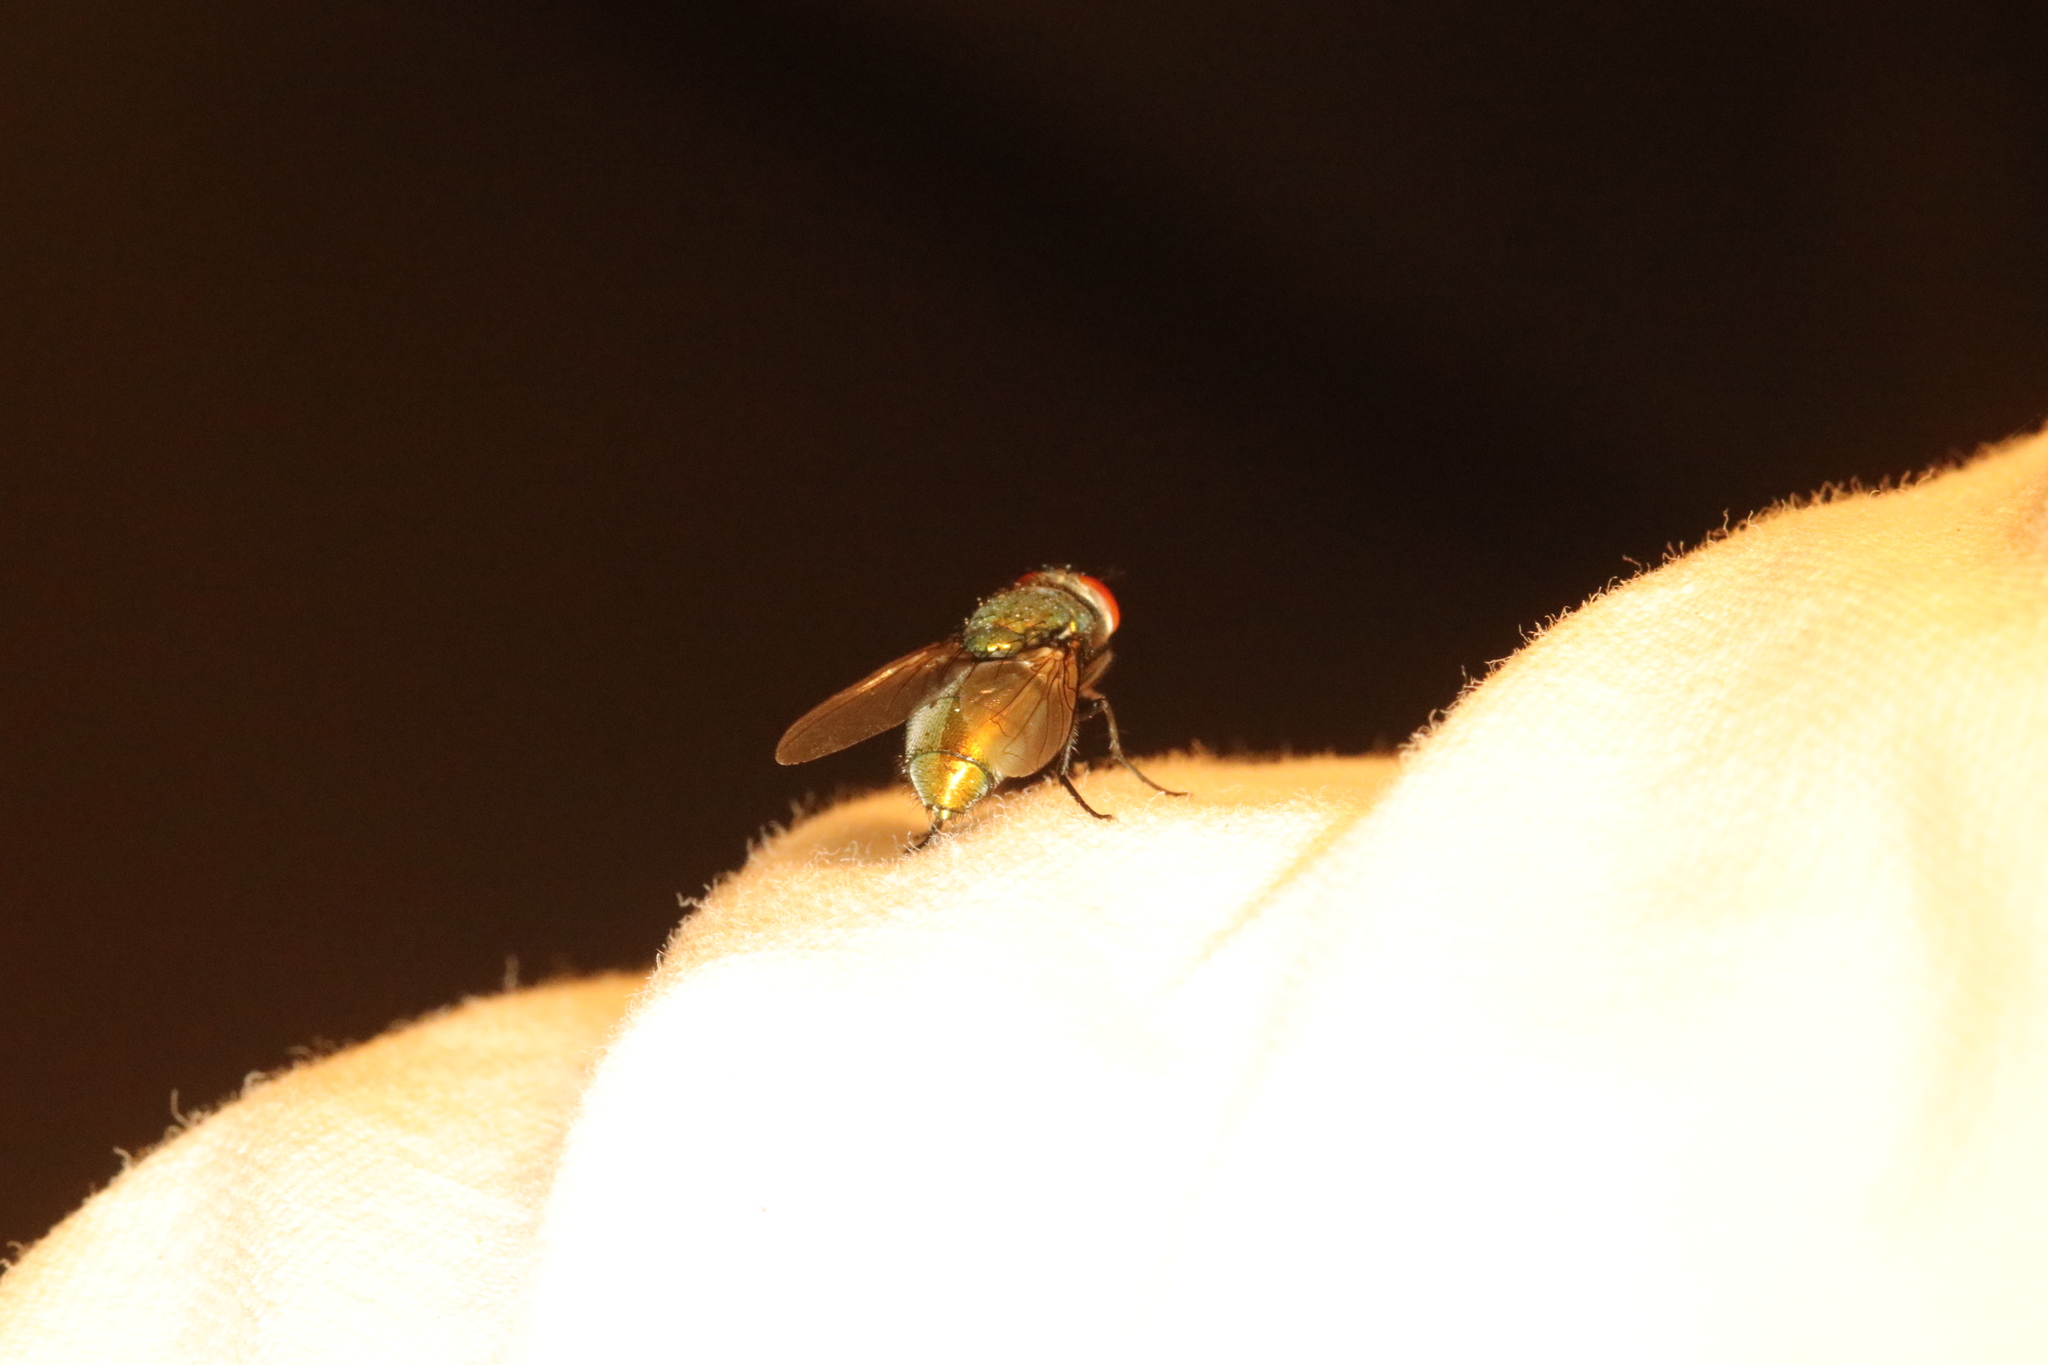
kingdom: Animalia
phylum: Arthropoda
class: Insecta
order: Diptera
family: Calliphoridae
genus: Lucilia
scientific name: Lucilia sericata
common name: Blow fly
